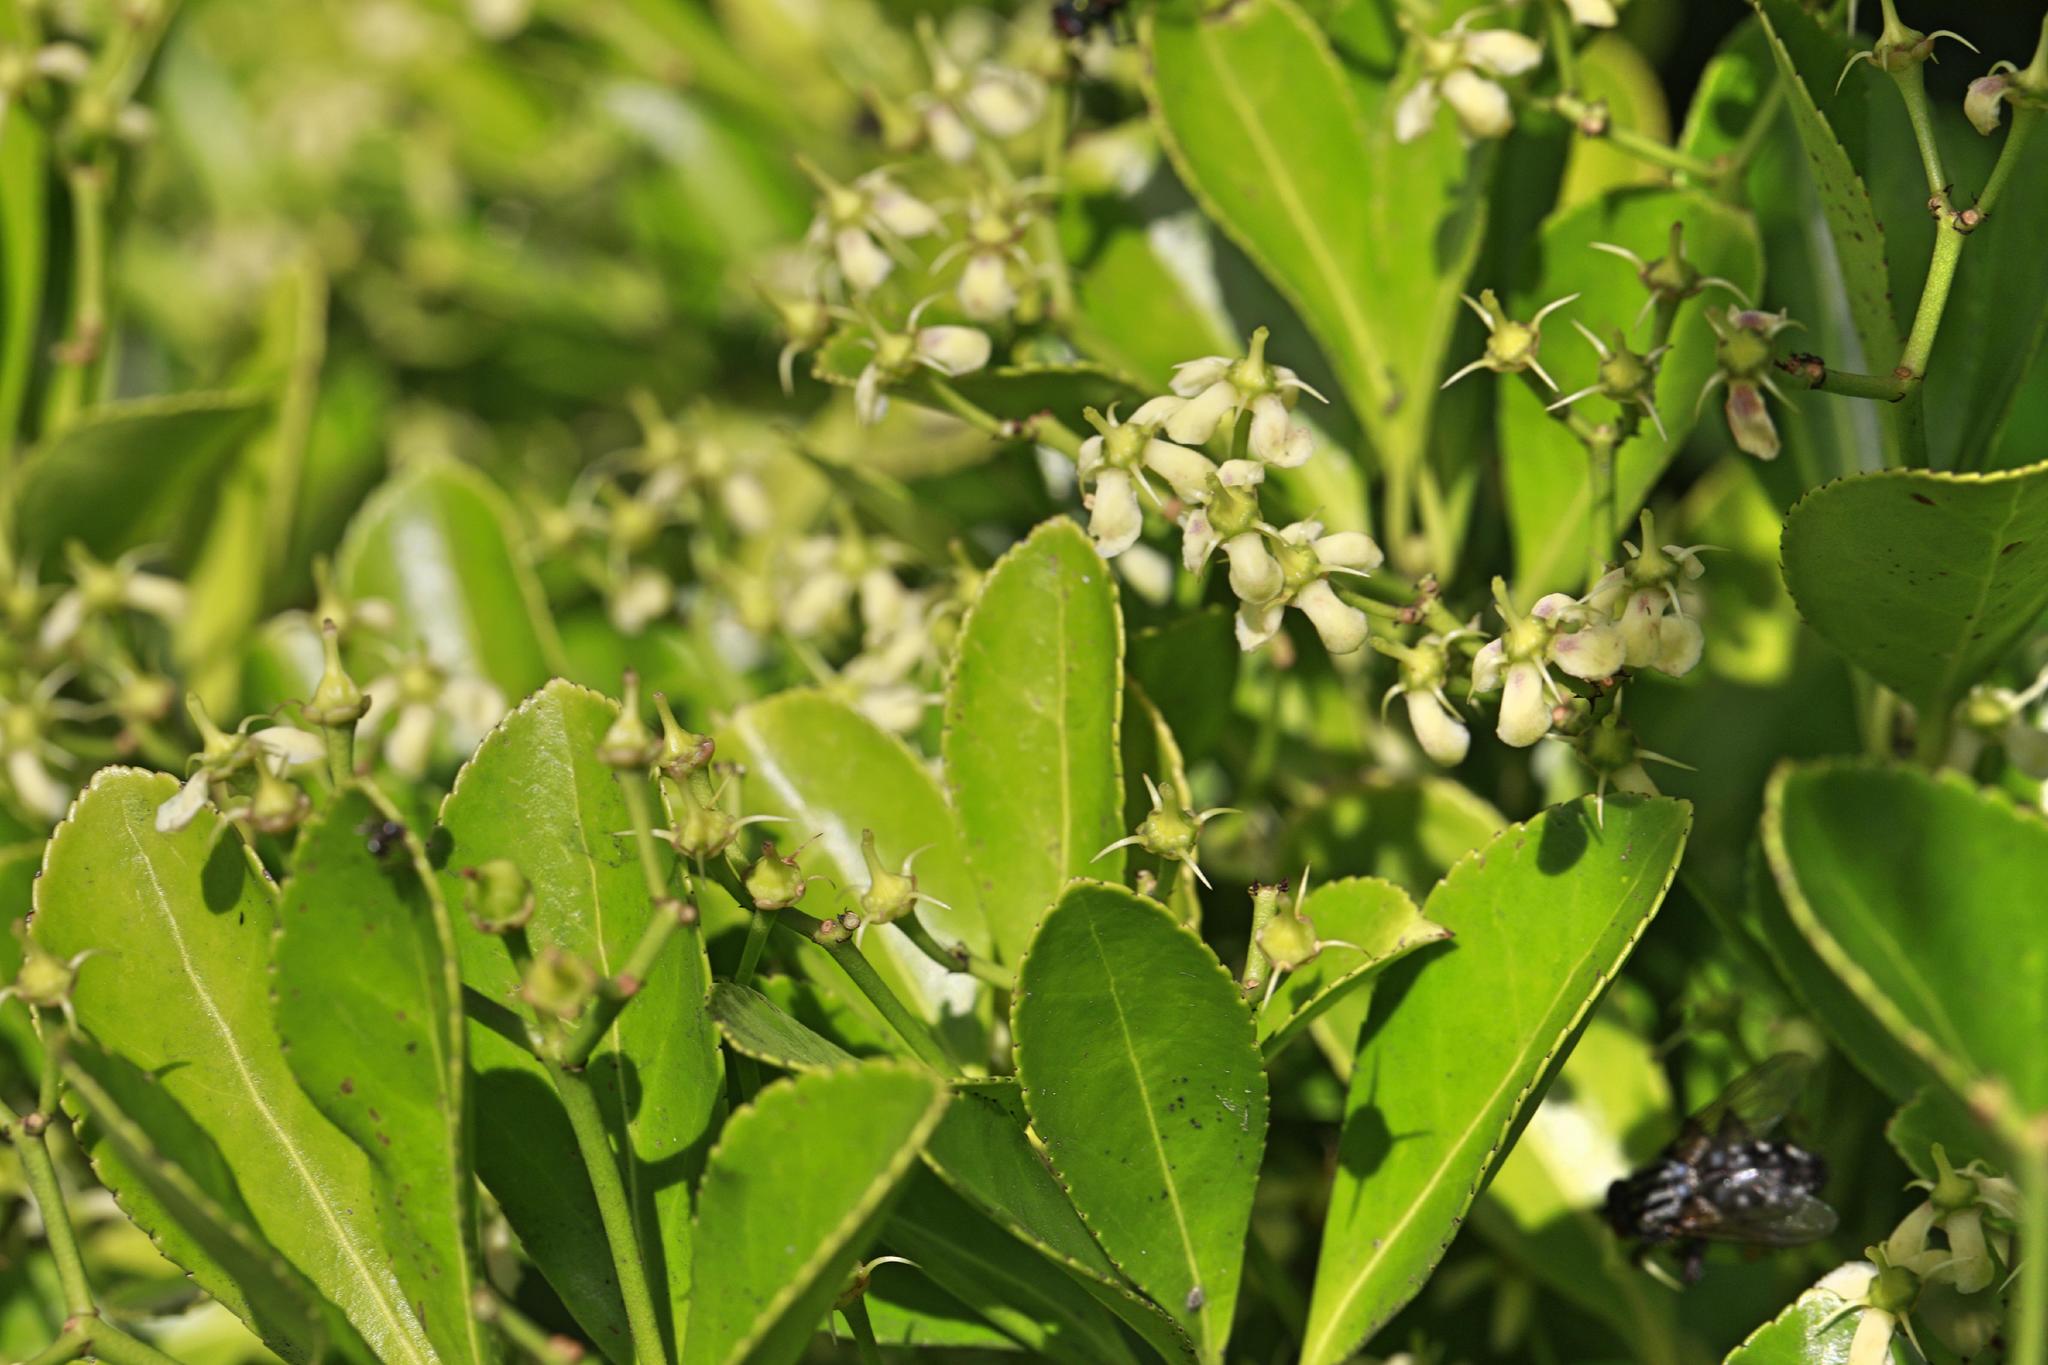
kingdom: Plantae
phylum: Tracheophyta
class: Magnoliopsida
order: Celastrales
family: Celastraceae
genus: Euonymus
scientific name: Euonymus japonicus
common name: Japanese spindletree
